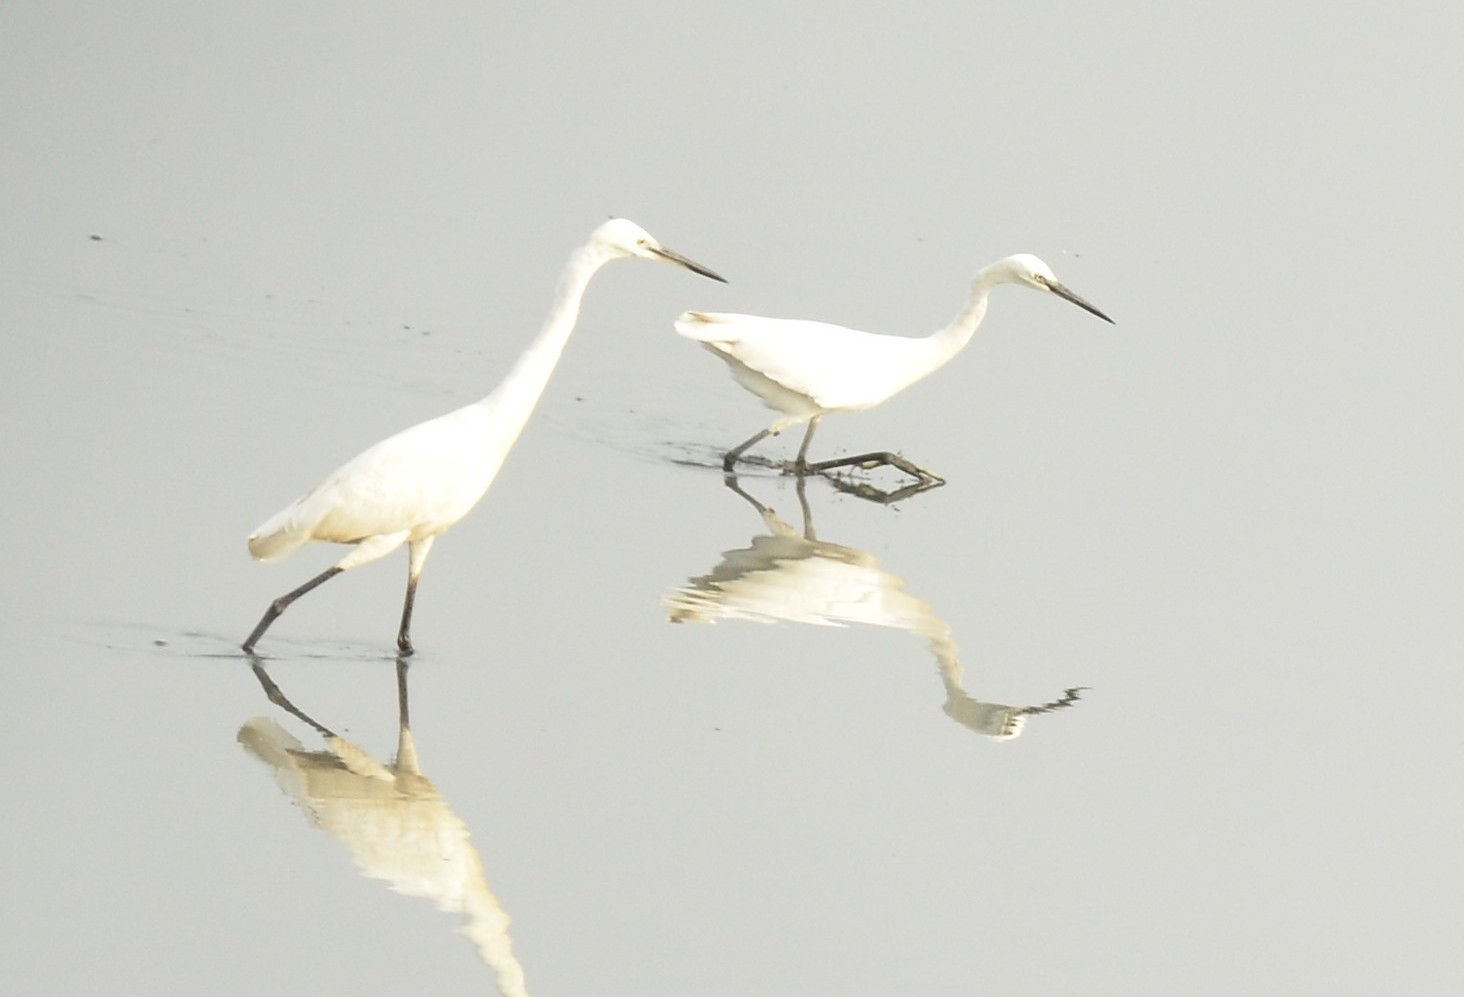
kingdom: Animalia
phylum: Chordata
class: Aves
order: Pelecaniformes
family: Ardeidae
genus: Egretta
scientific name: Egretta garzetta
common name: Little egret
